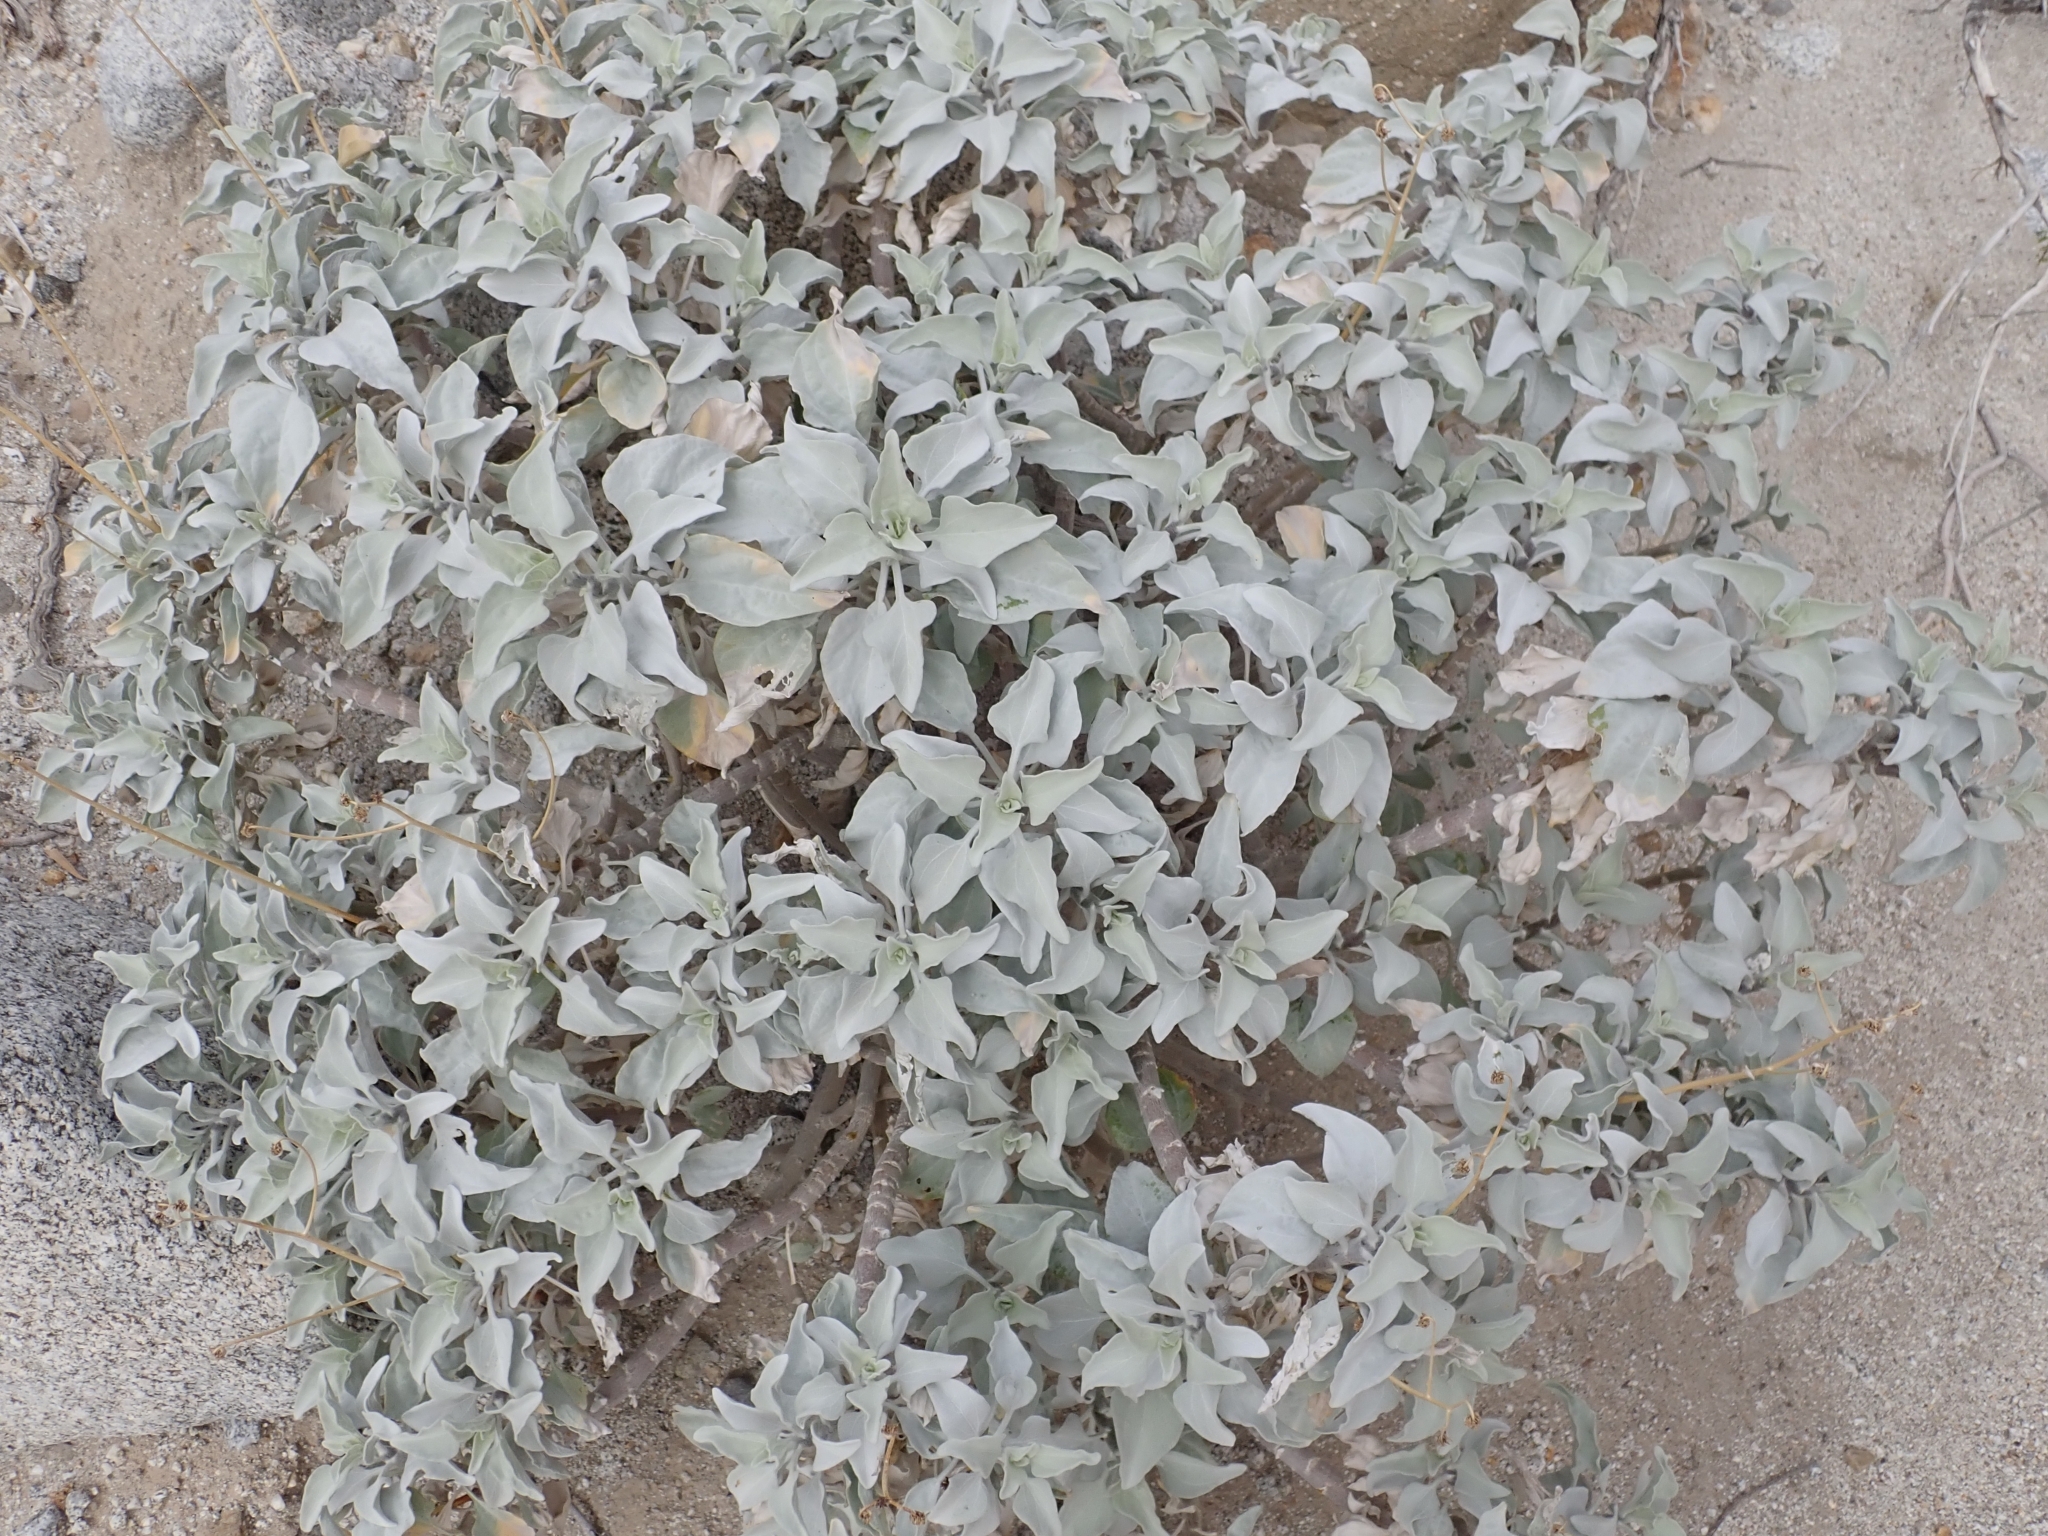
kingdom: Plantae
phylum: Tracheophyta
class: Magnoliopsida
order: Asterales
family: Asteraceae
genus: Encelia
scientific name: Encelia farinosa
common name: Brittlebush
